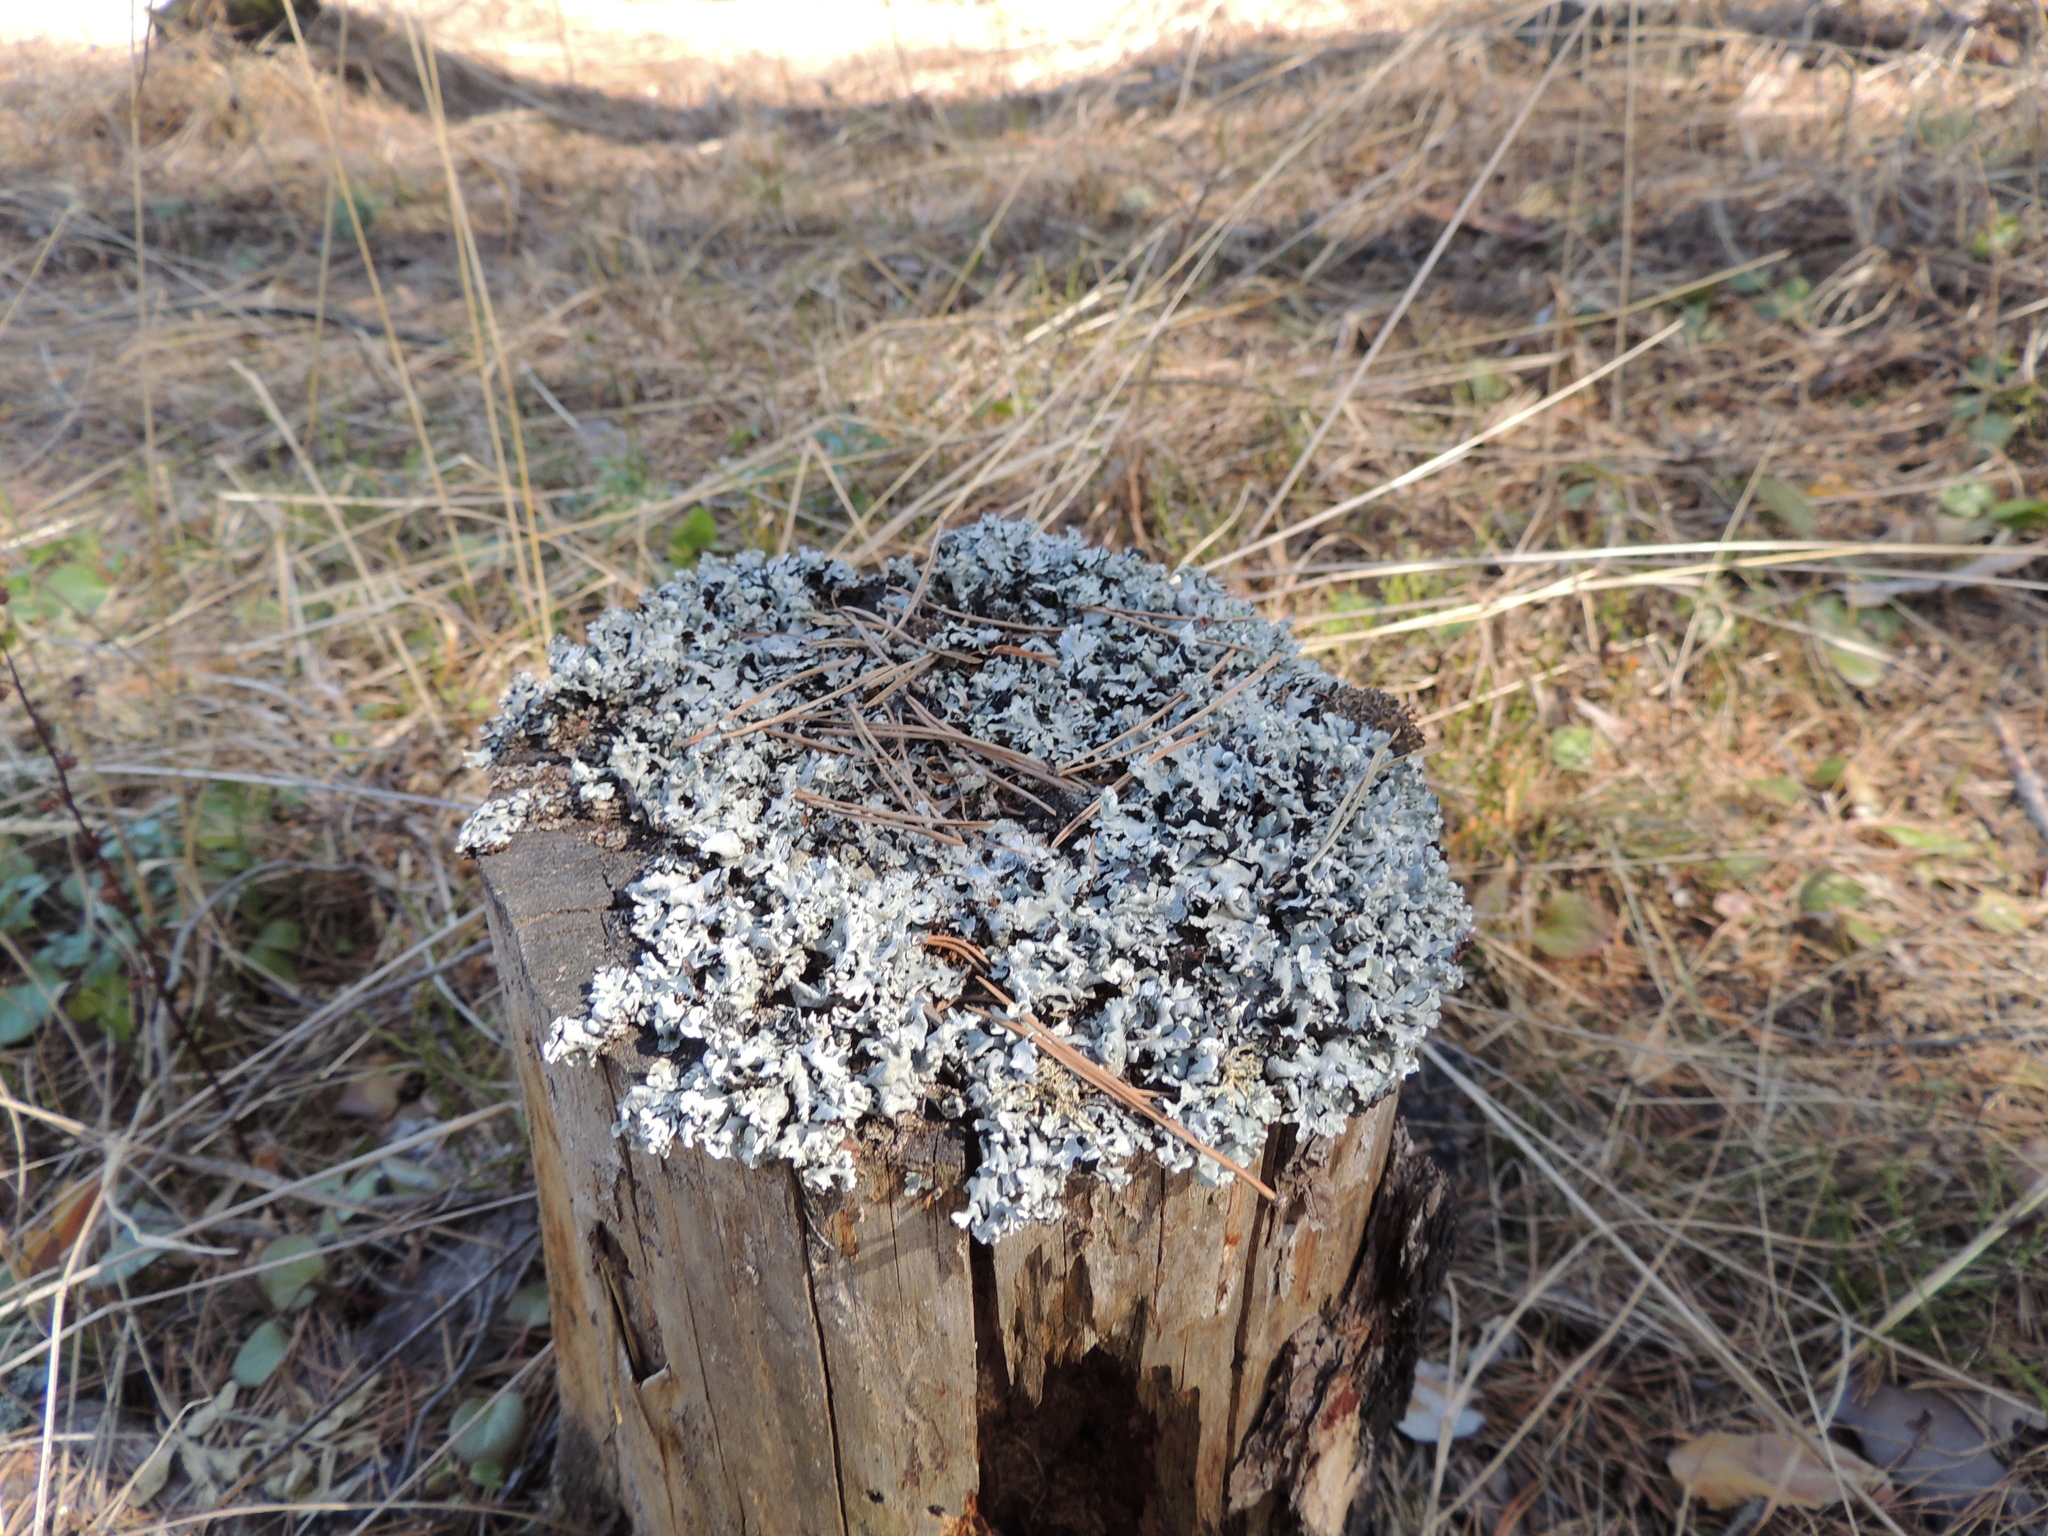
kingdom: Fungi
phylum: Ascomycota
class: Lecanoromycetes
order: Lecanorales
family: Parmeliaceae
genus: Hypogymnia
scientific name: Hypogymnia physodes
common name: Dark crottle
